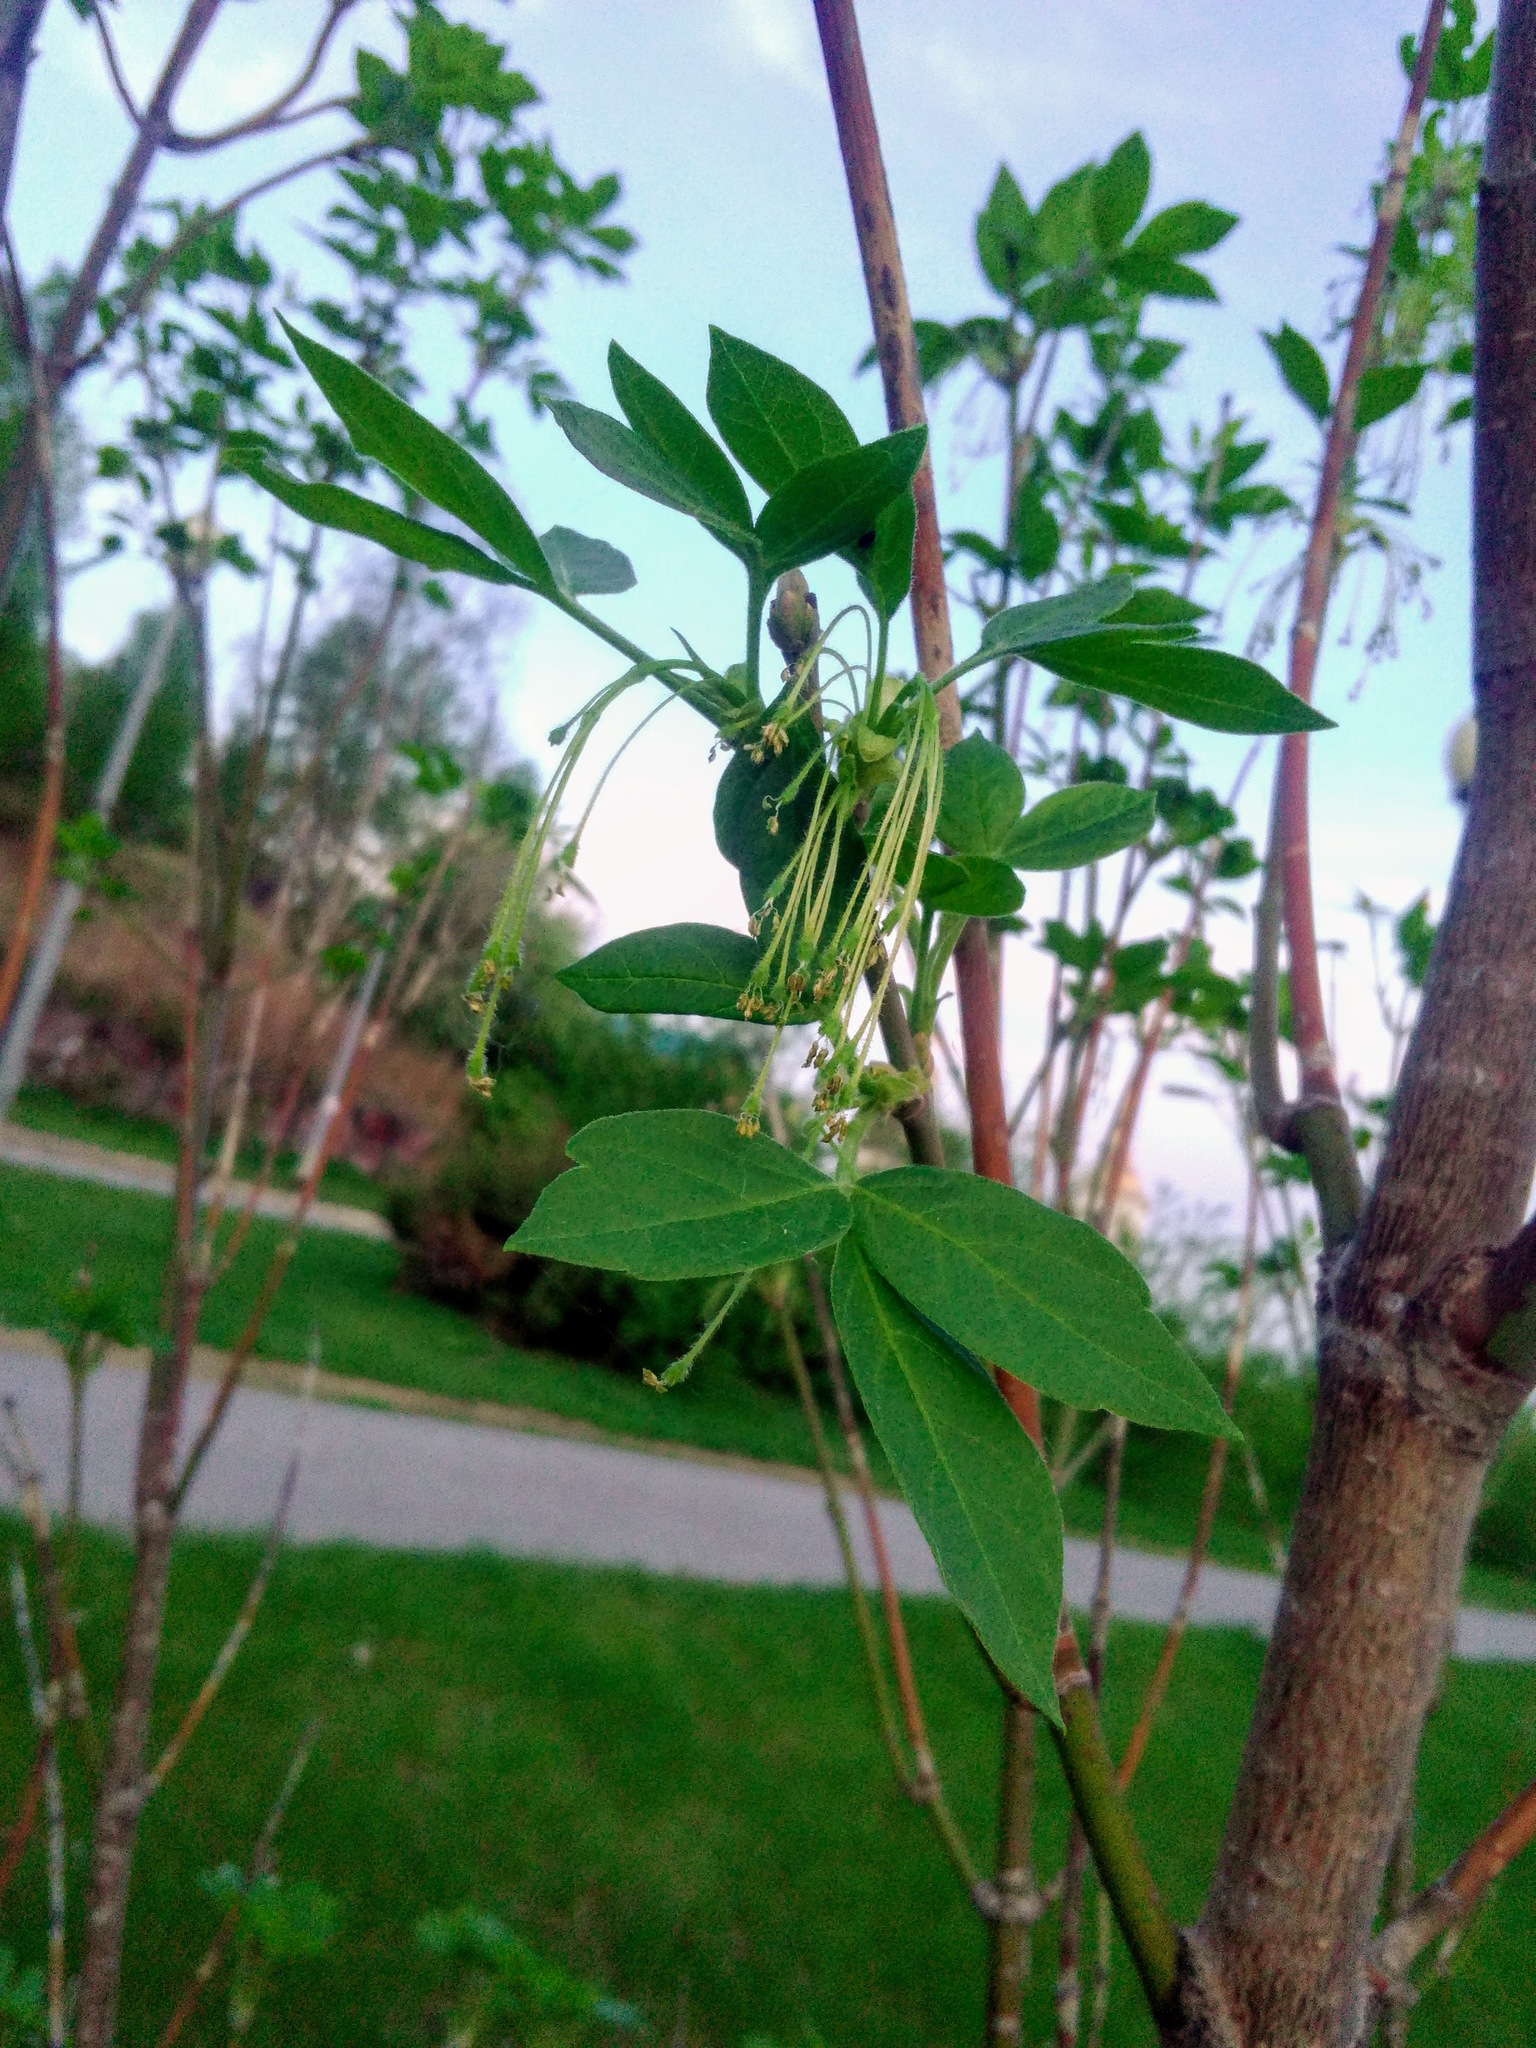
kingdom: Plantae
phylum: Tracheophyta
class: Magnoliopsida
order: Sapindales
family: Sapindaceae
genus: Acer
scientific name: Acer negundo
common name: Ashleaf maple
